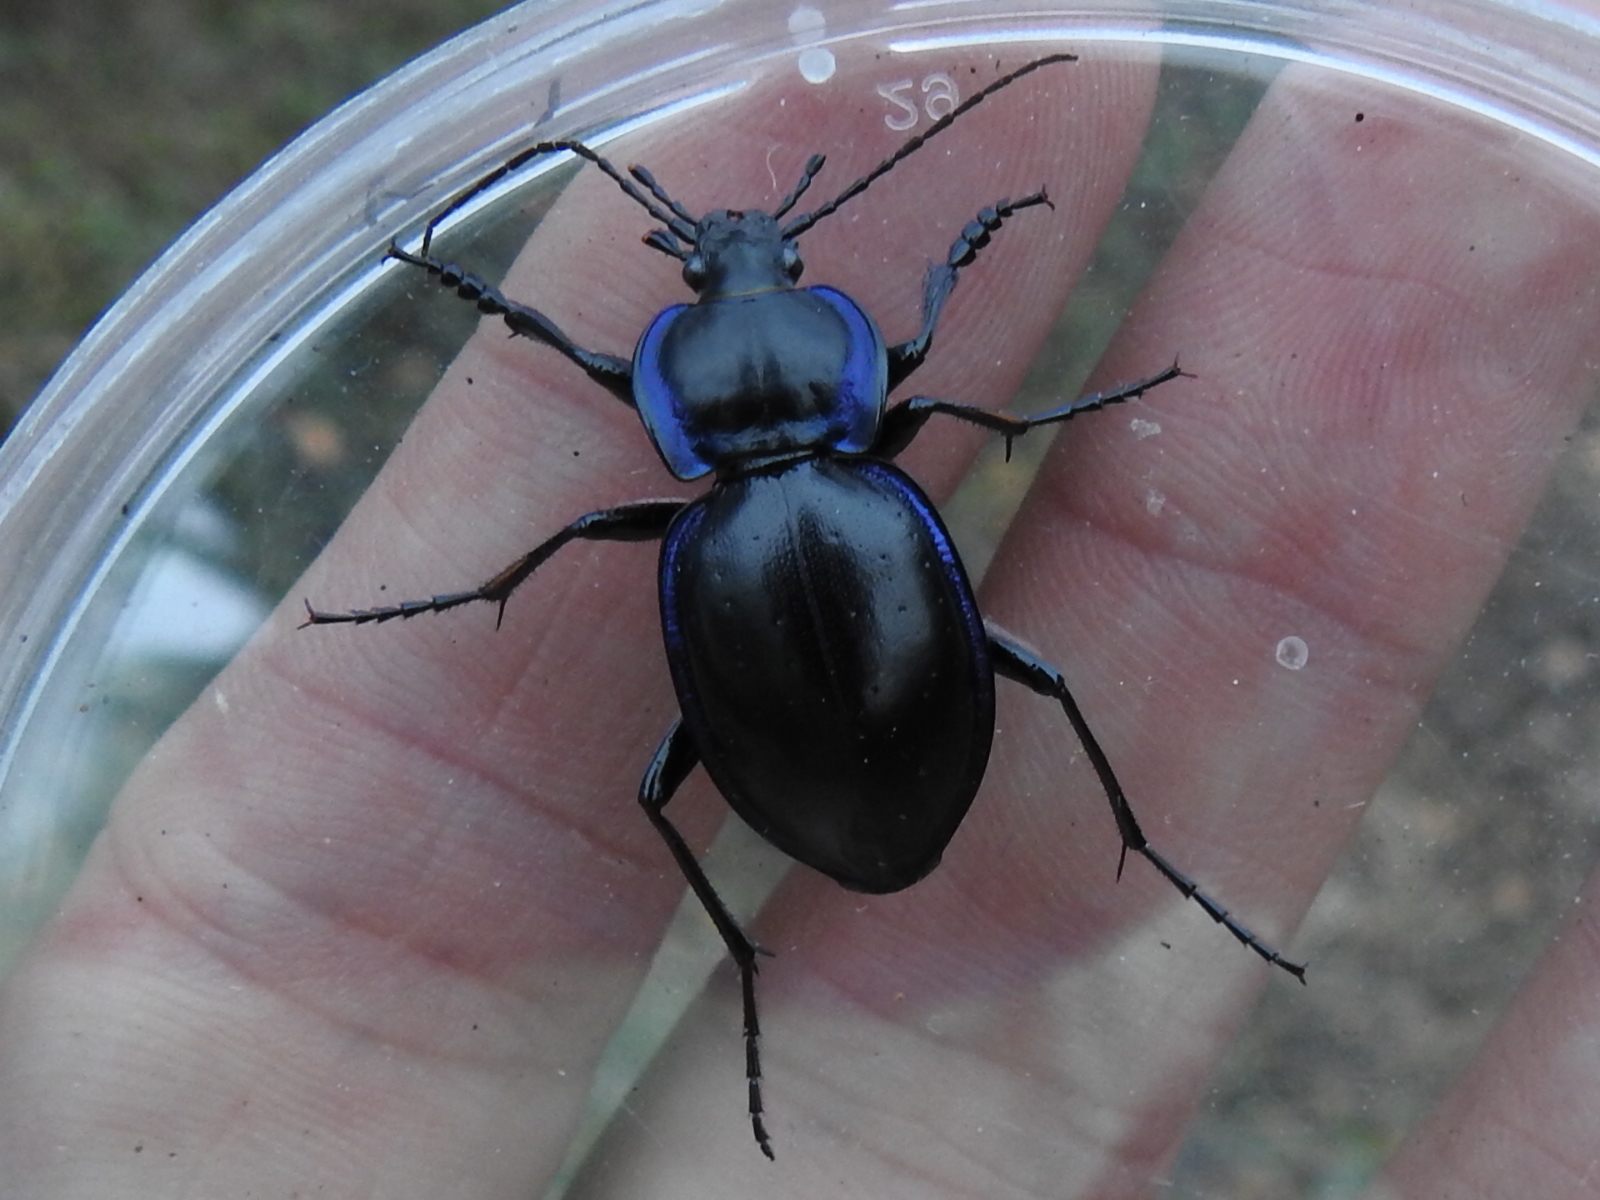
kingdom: Animalia
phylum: Arthropoda
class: Insecta
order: Coleoptera
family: Carabidae
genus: Carabus
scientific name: Carabus finitimus
